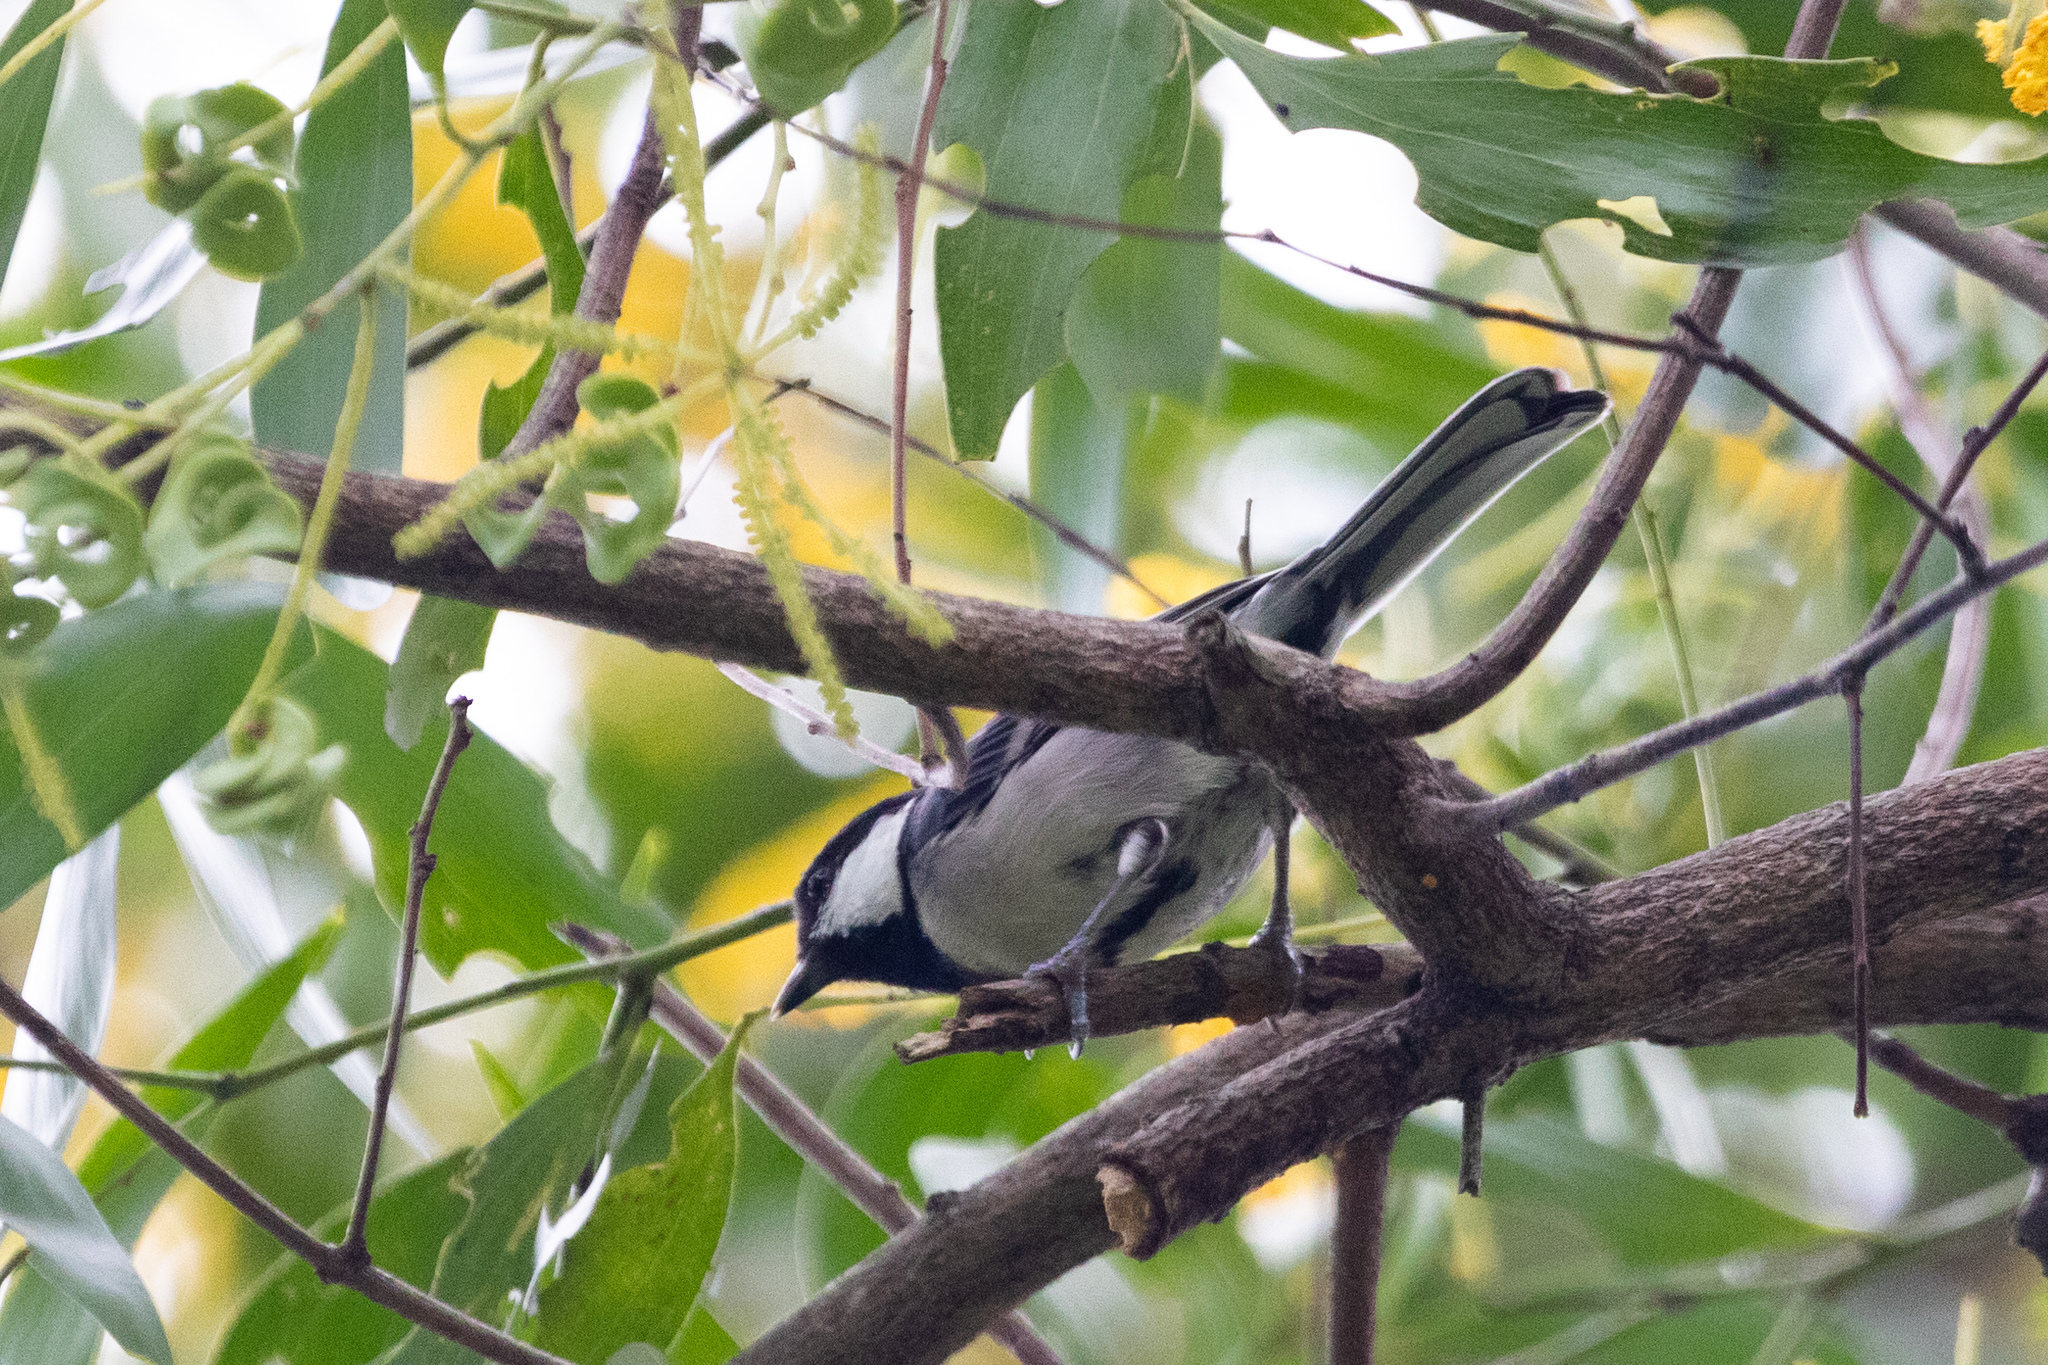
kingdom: Animalia
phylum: Chordata
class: Aves
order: Passeriformes
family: Paridae
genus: Parus
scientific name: Parus minor
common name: Japanese tit
